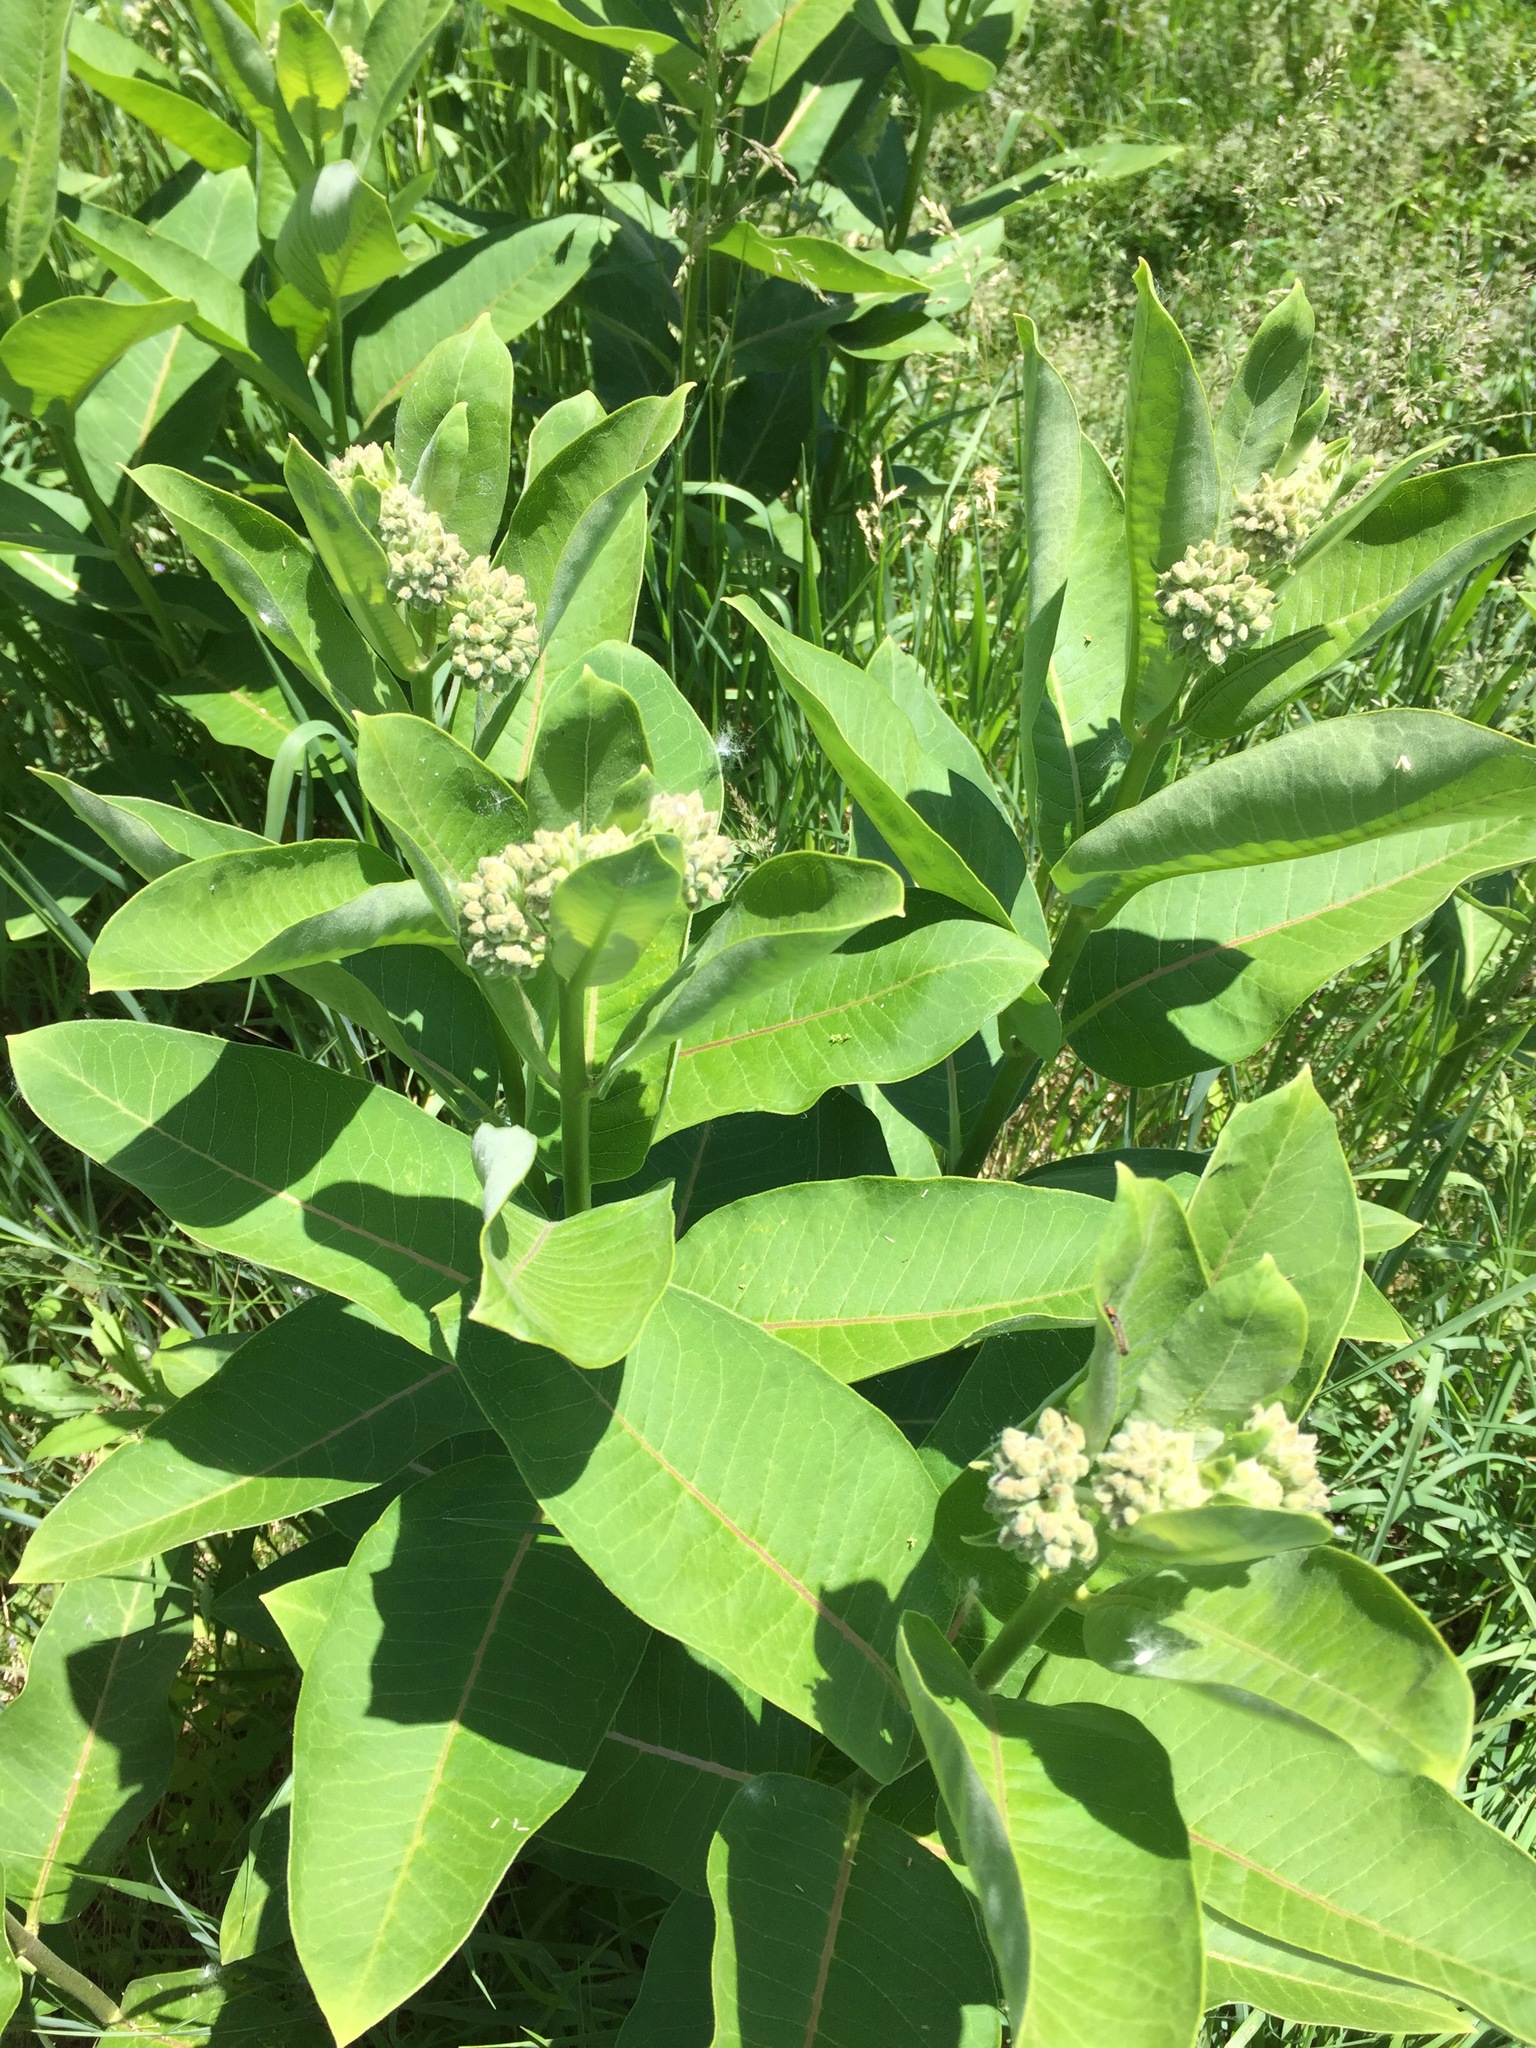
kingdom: Plantae
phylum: Tracheophyta
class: Magnoliopsida
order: Gentianales
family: Apocynaceae
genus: Asclepias
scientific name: Asclepias syriaca
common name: Common milkweed
